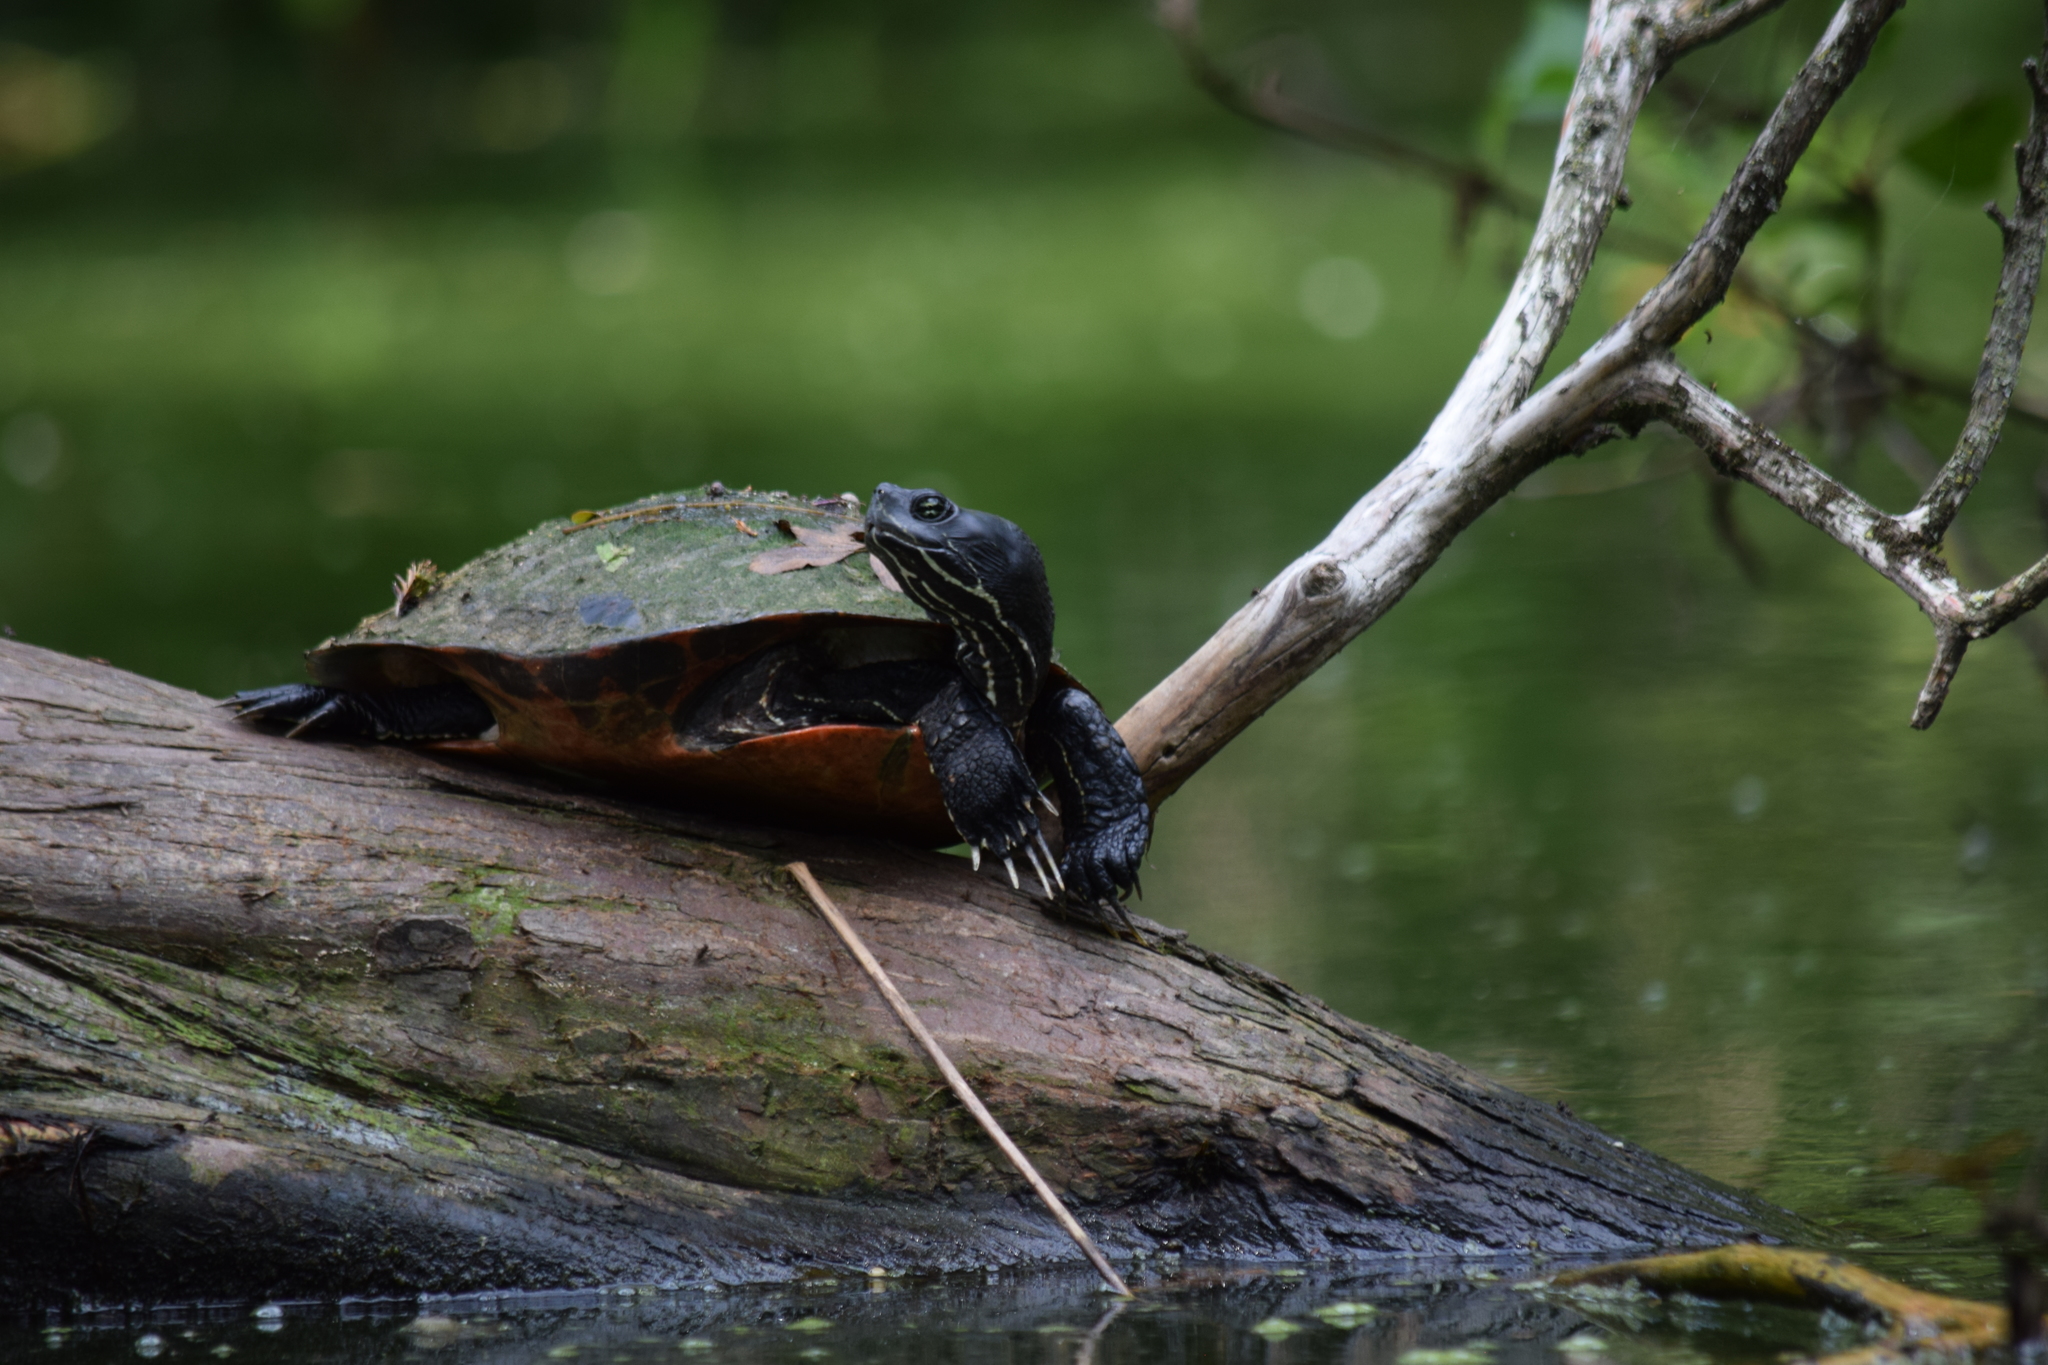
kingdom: Animalia
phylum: Chordata
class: Testudines
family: Emydidae
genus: Pseudemys
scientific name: Pseudemys rubriventris
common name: American red-bellied turtle
